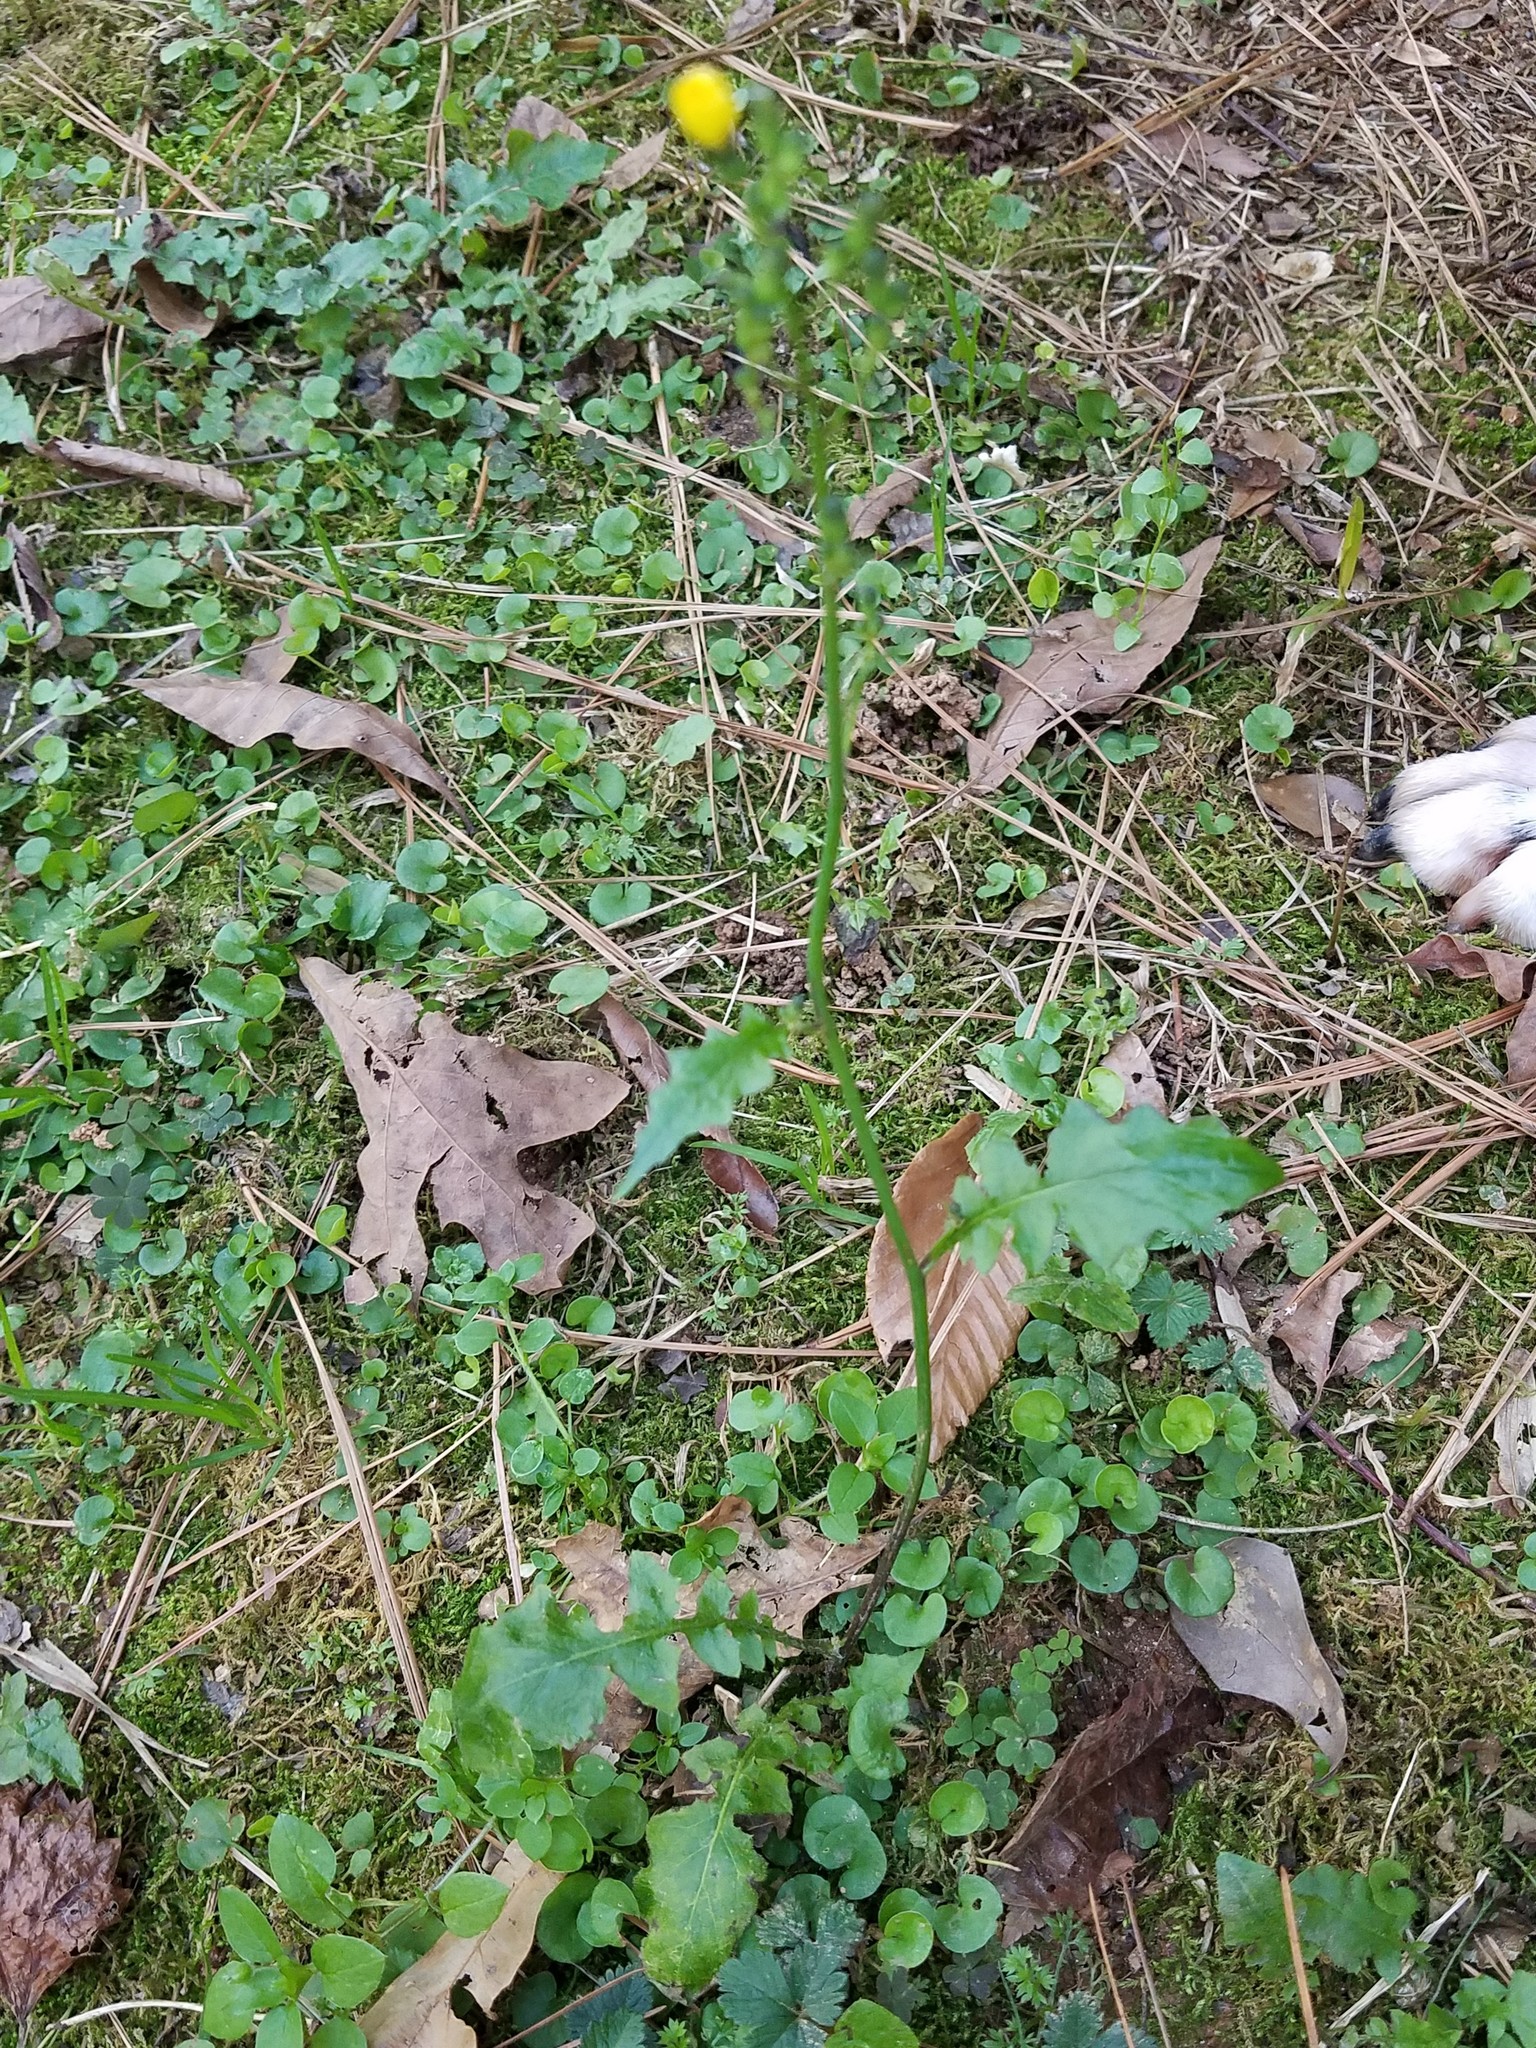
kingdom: Plantae
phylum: Tracheophyta
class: Magnoliopsida
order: Asterales
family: Asteraceae
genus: Youngia
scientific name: Youngia japonica
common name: Oriental false hawksbeard
